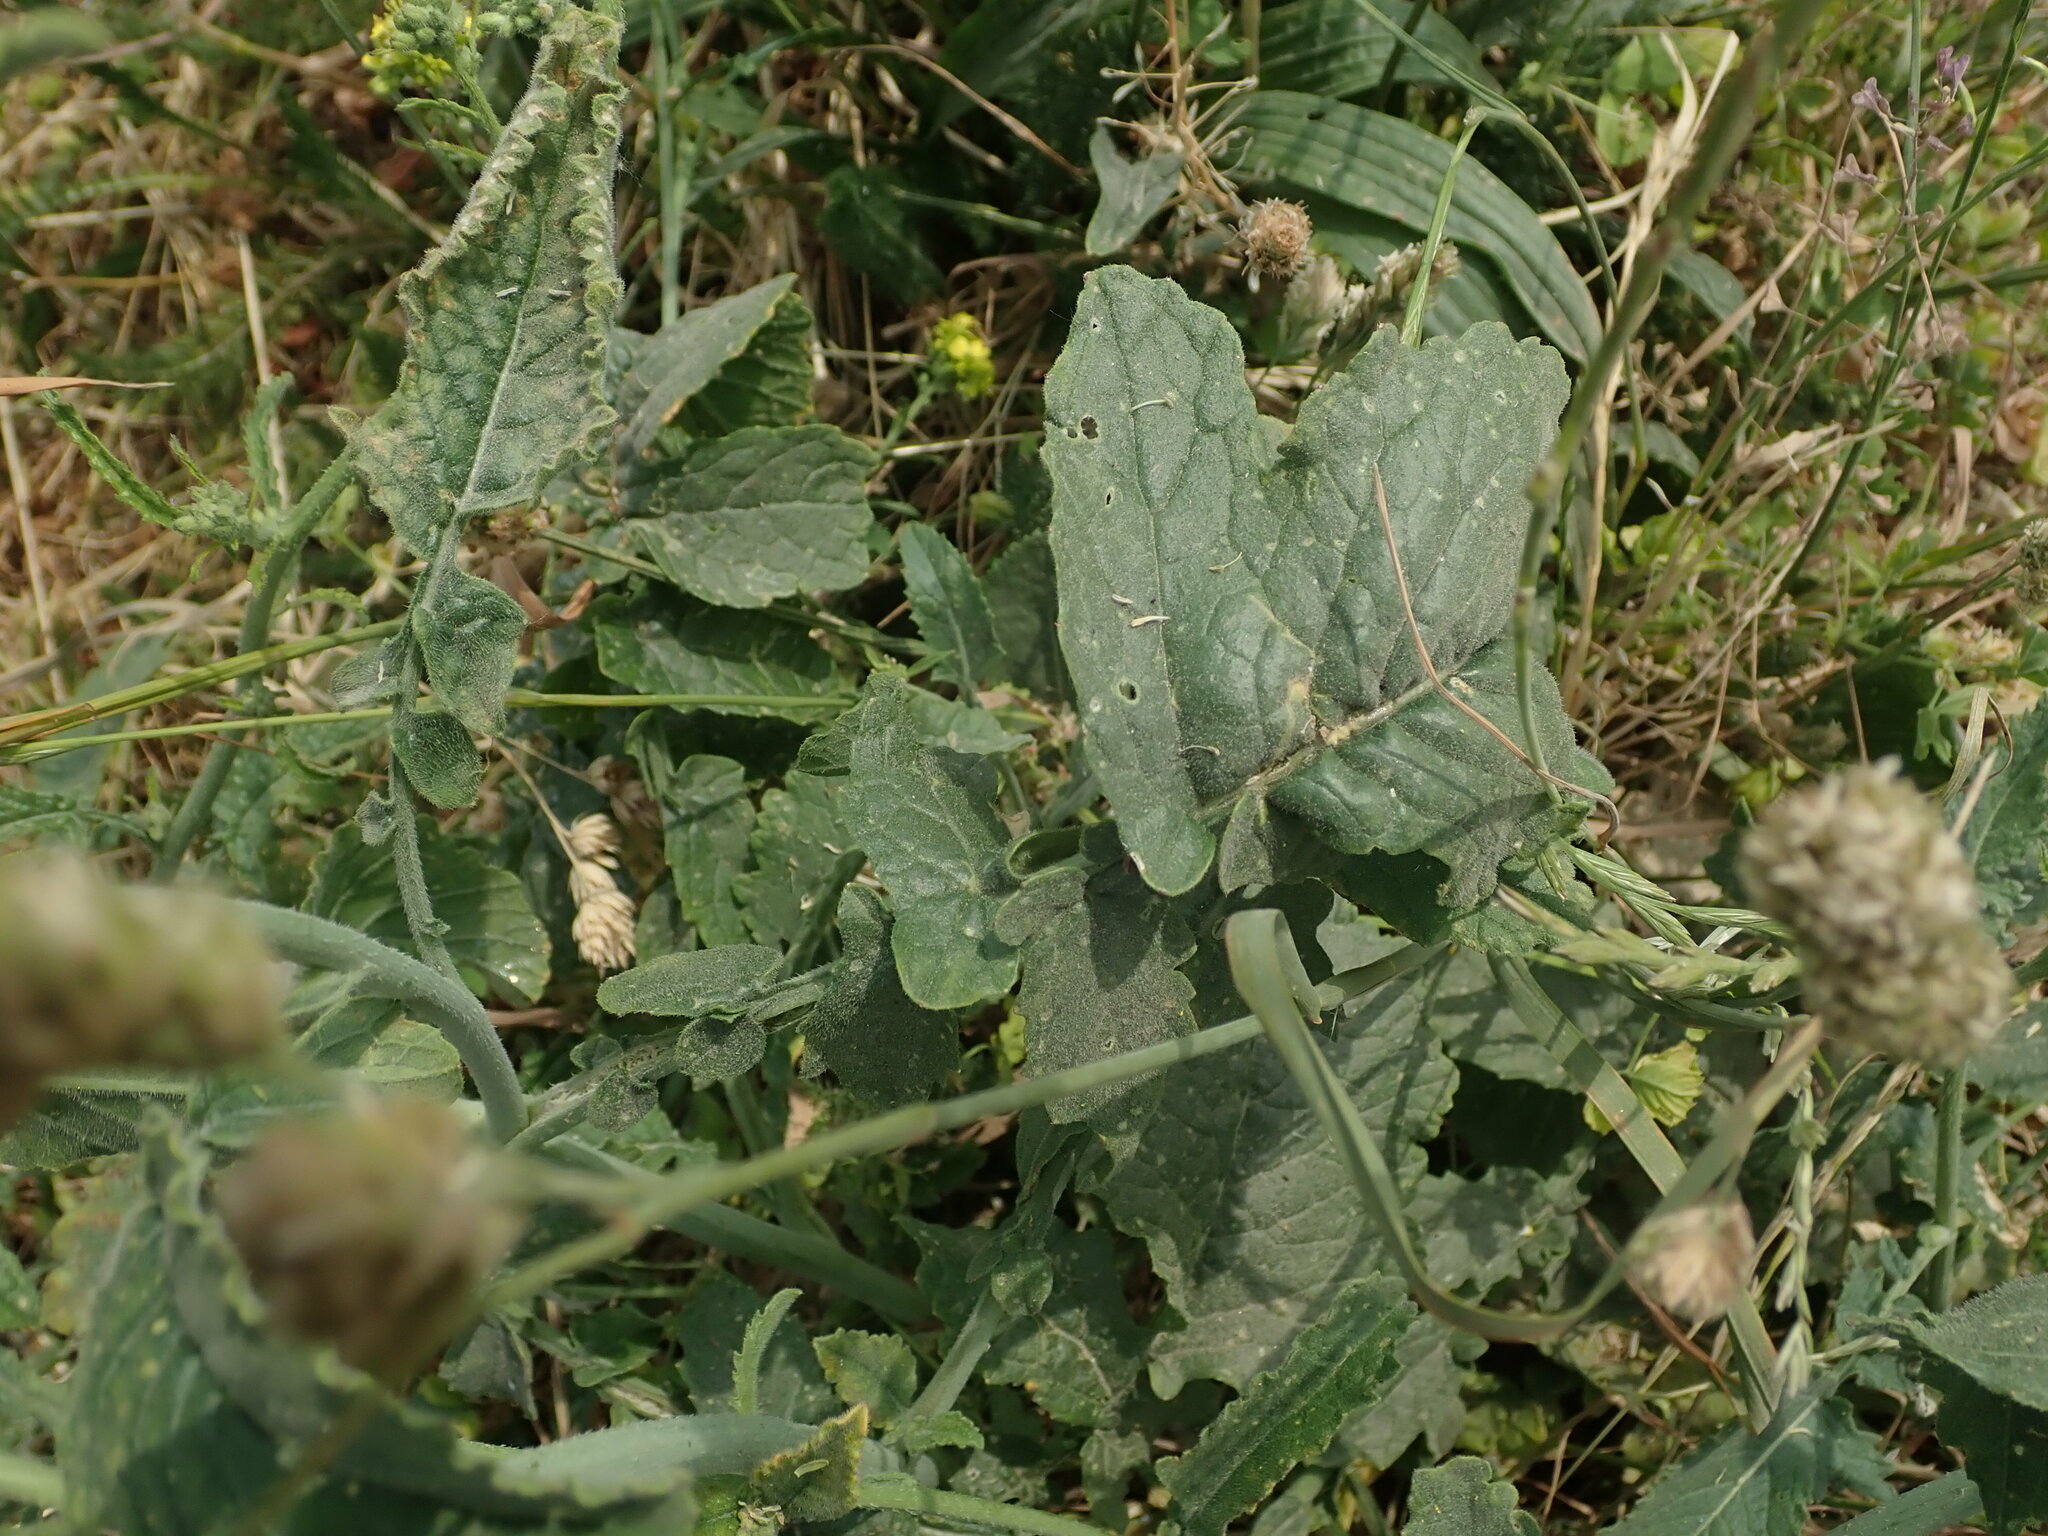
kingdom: Plantae
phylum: Tracheophyta
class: Magnoliopsida
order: Brassicales
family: Brassicaceae
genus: Hirschfeldia
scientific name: Hirschfeldia incana
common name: Hoary mustard
